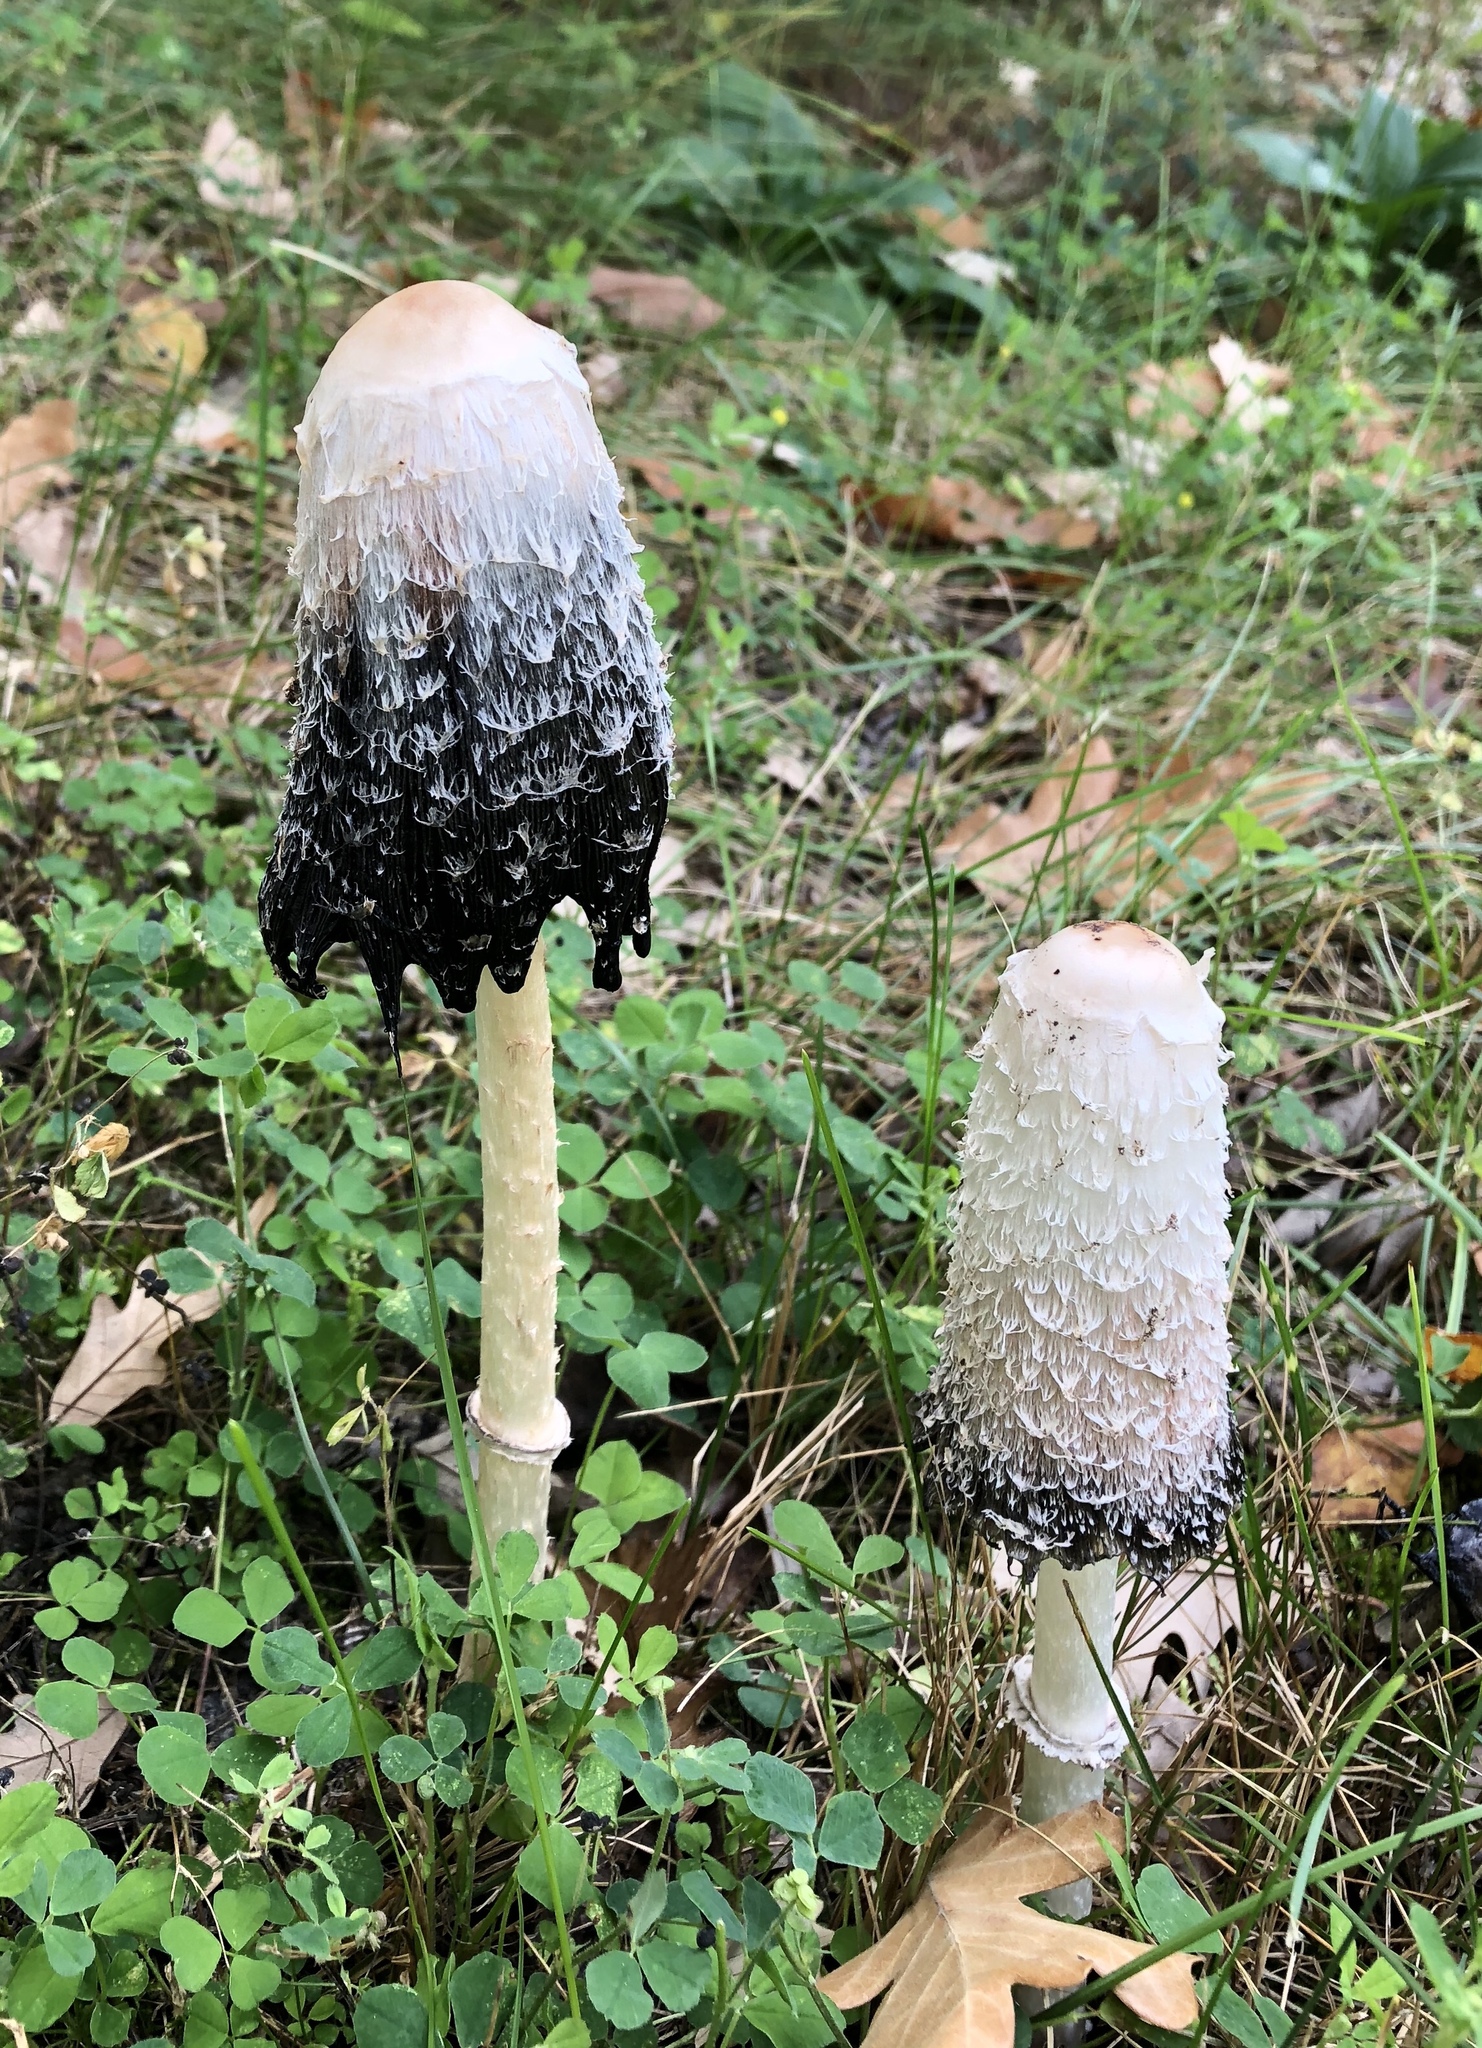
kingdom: Fungi
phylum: Basidiomycota
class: Agaricomycetes
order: Agaricales
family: Agaricaceae
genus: Coprinus
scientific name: Coprinus comatus
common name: Lawyer's wig
